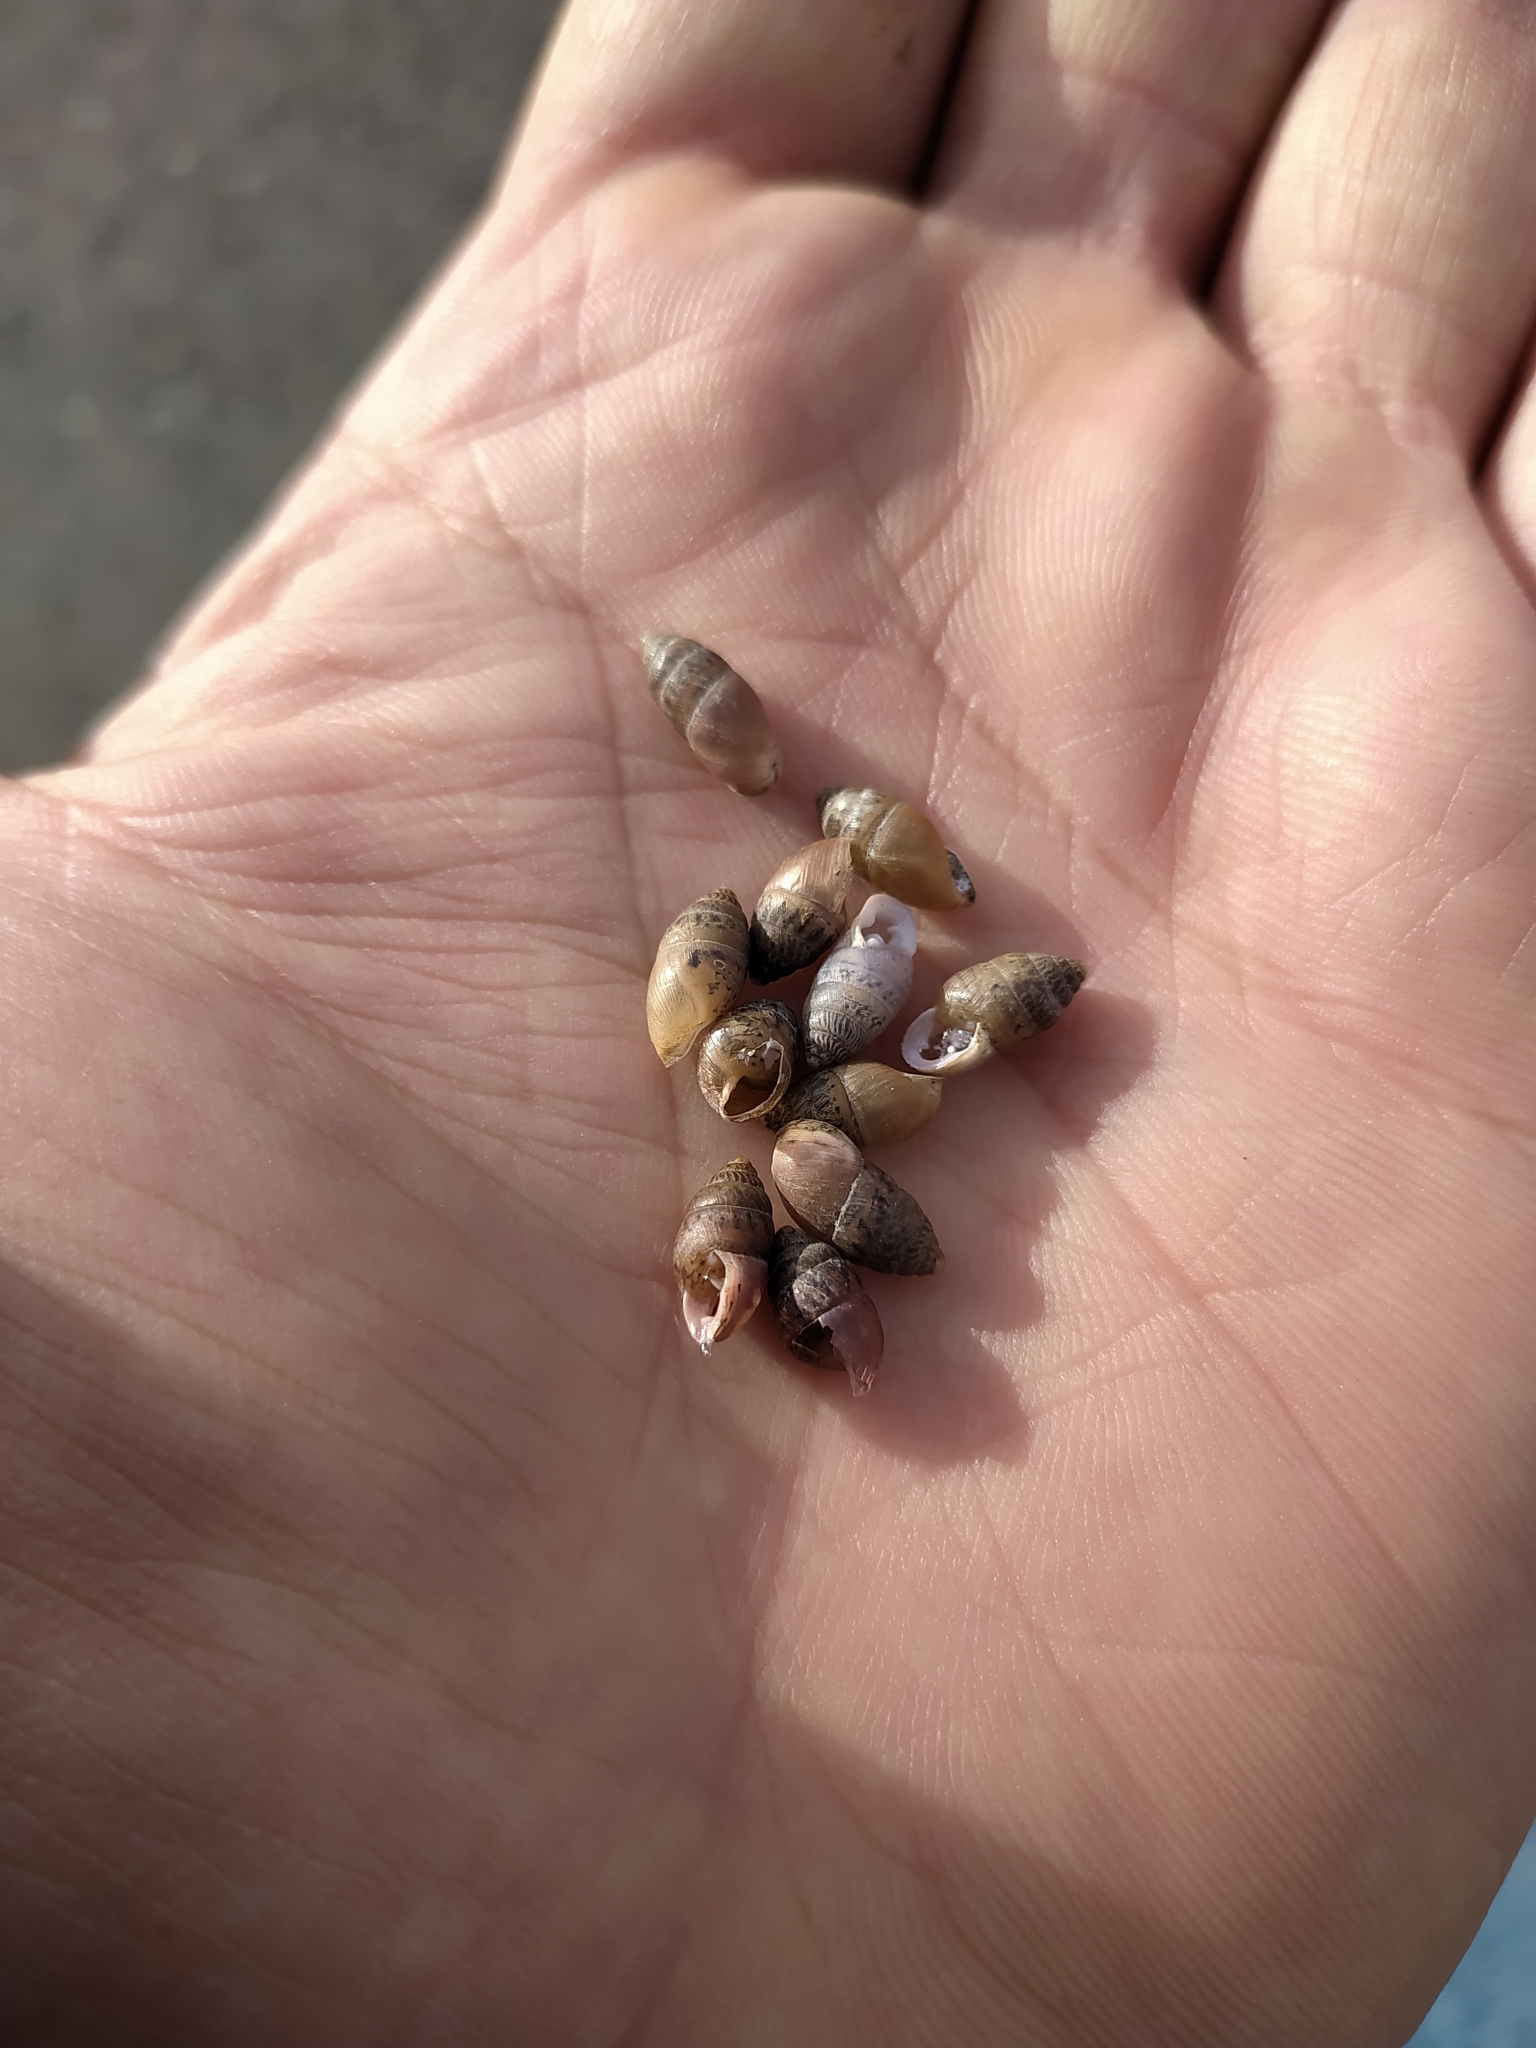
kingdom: Animalia
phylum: Mollusca
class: Gastropoda
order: Stylommatophora
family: Enidae
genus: Chondrula
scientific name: Chondrula tridens
